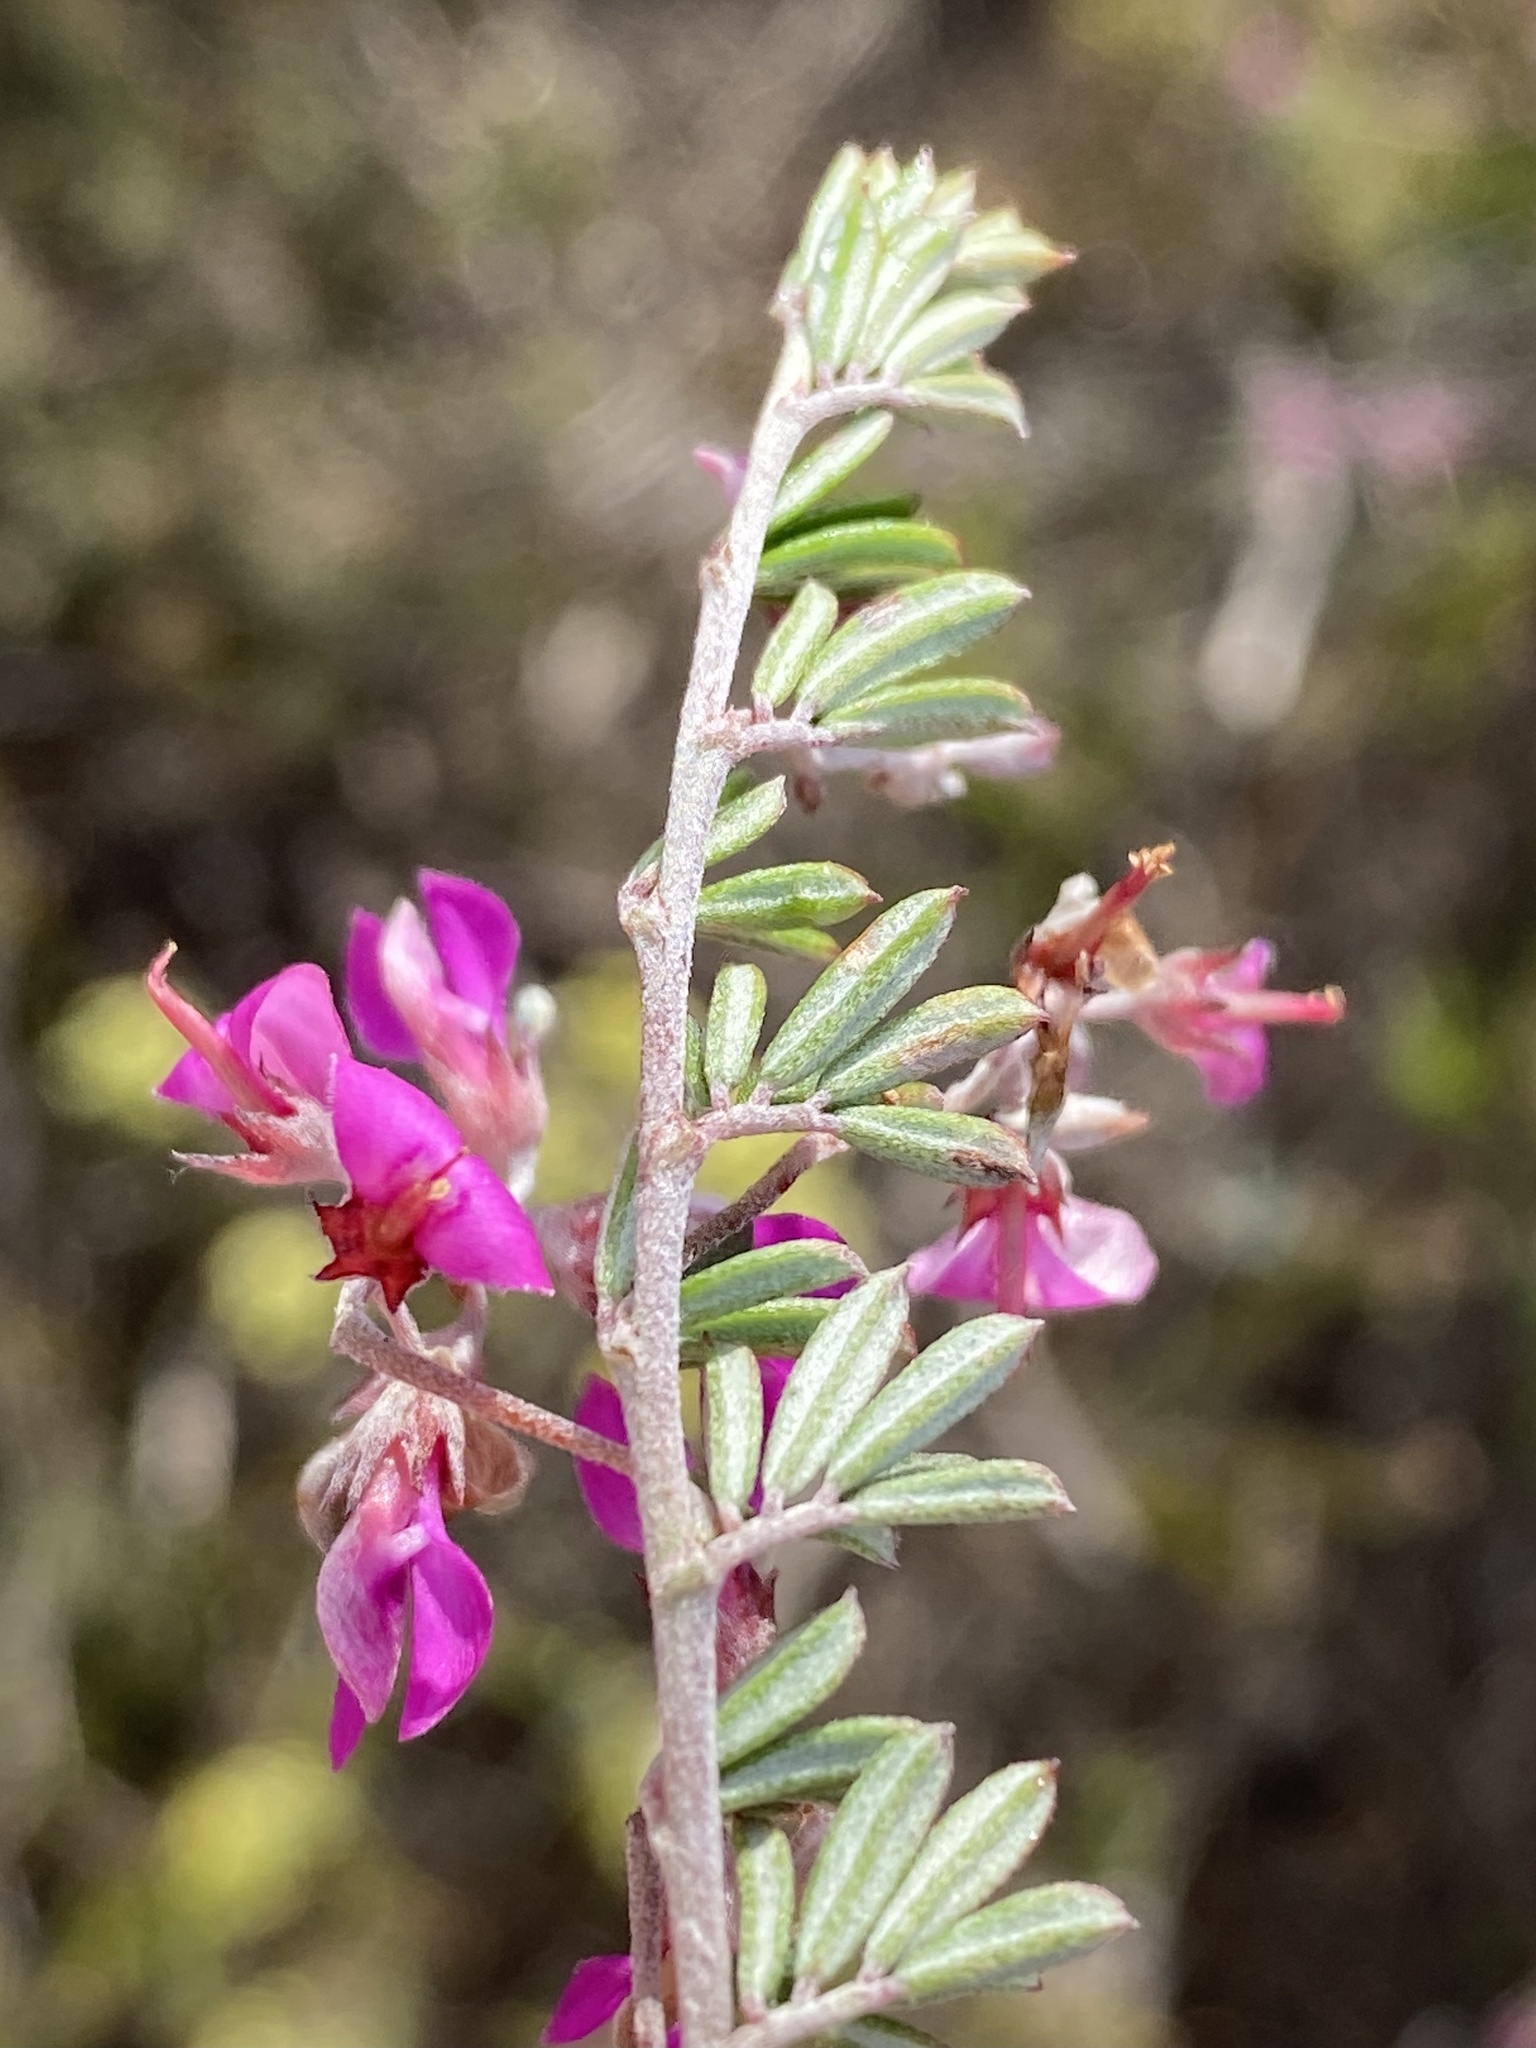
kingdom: Plantae
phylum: Tracheophyta
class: Magnoliopsida
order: Fabales
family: Fabaceae
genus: Indigofera
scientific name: Indigofera
